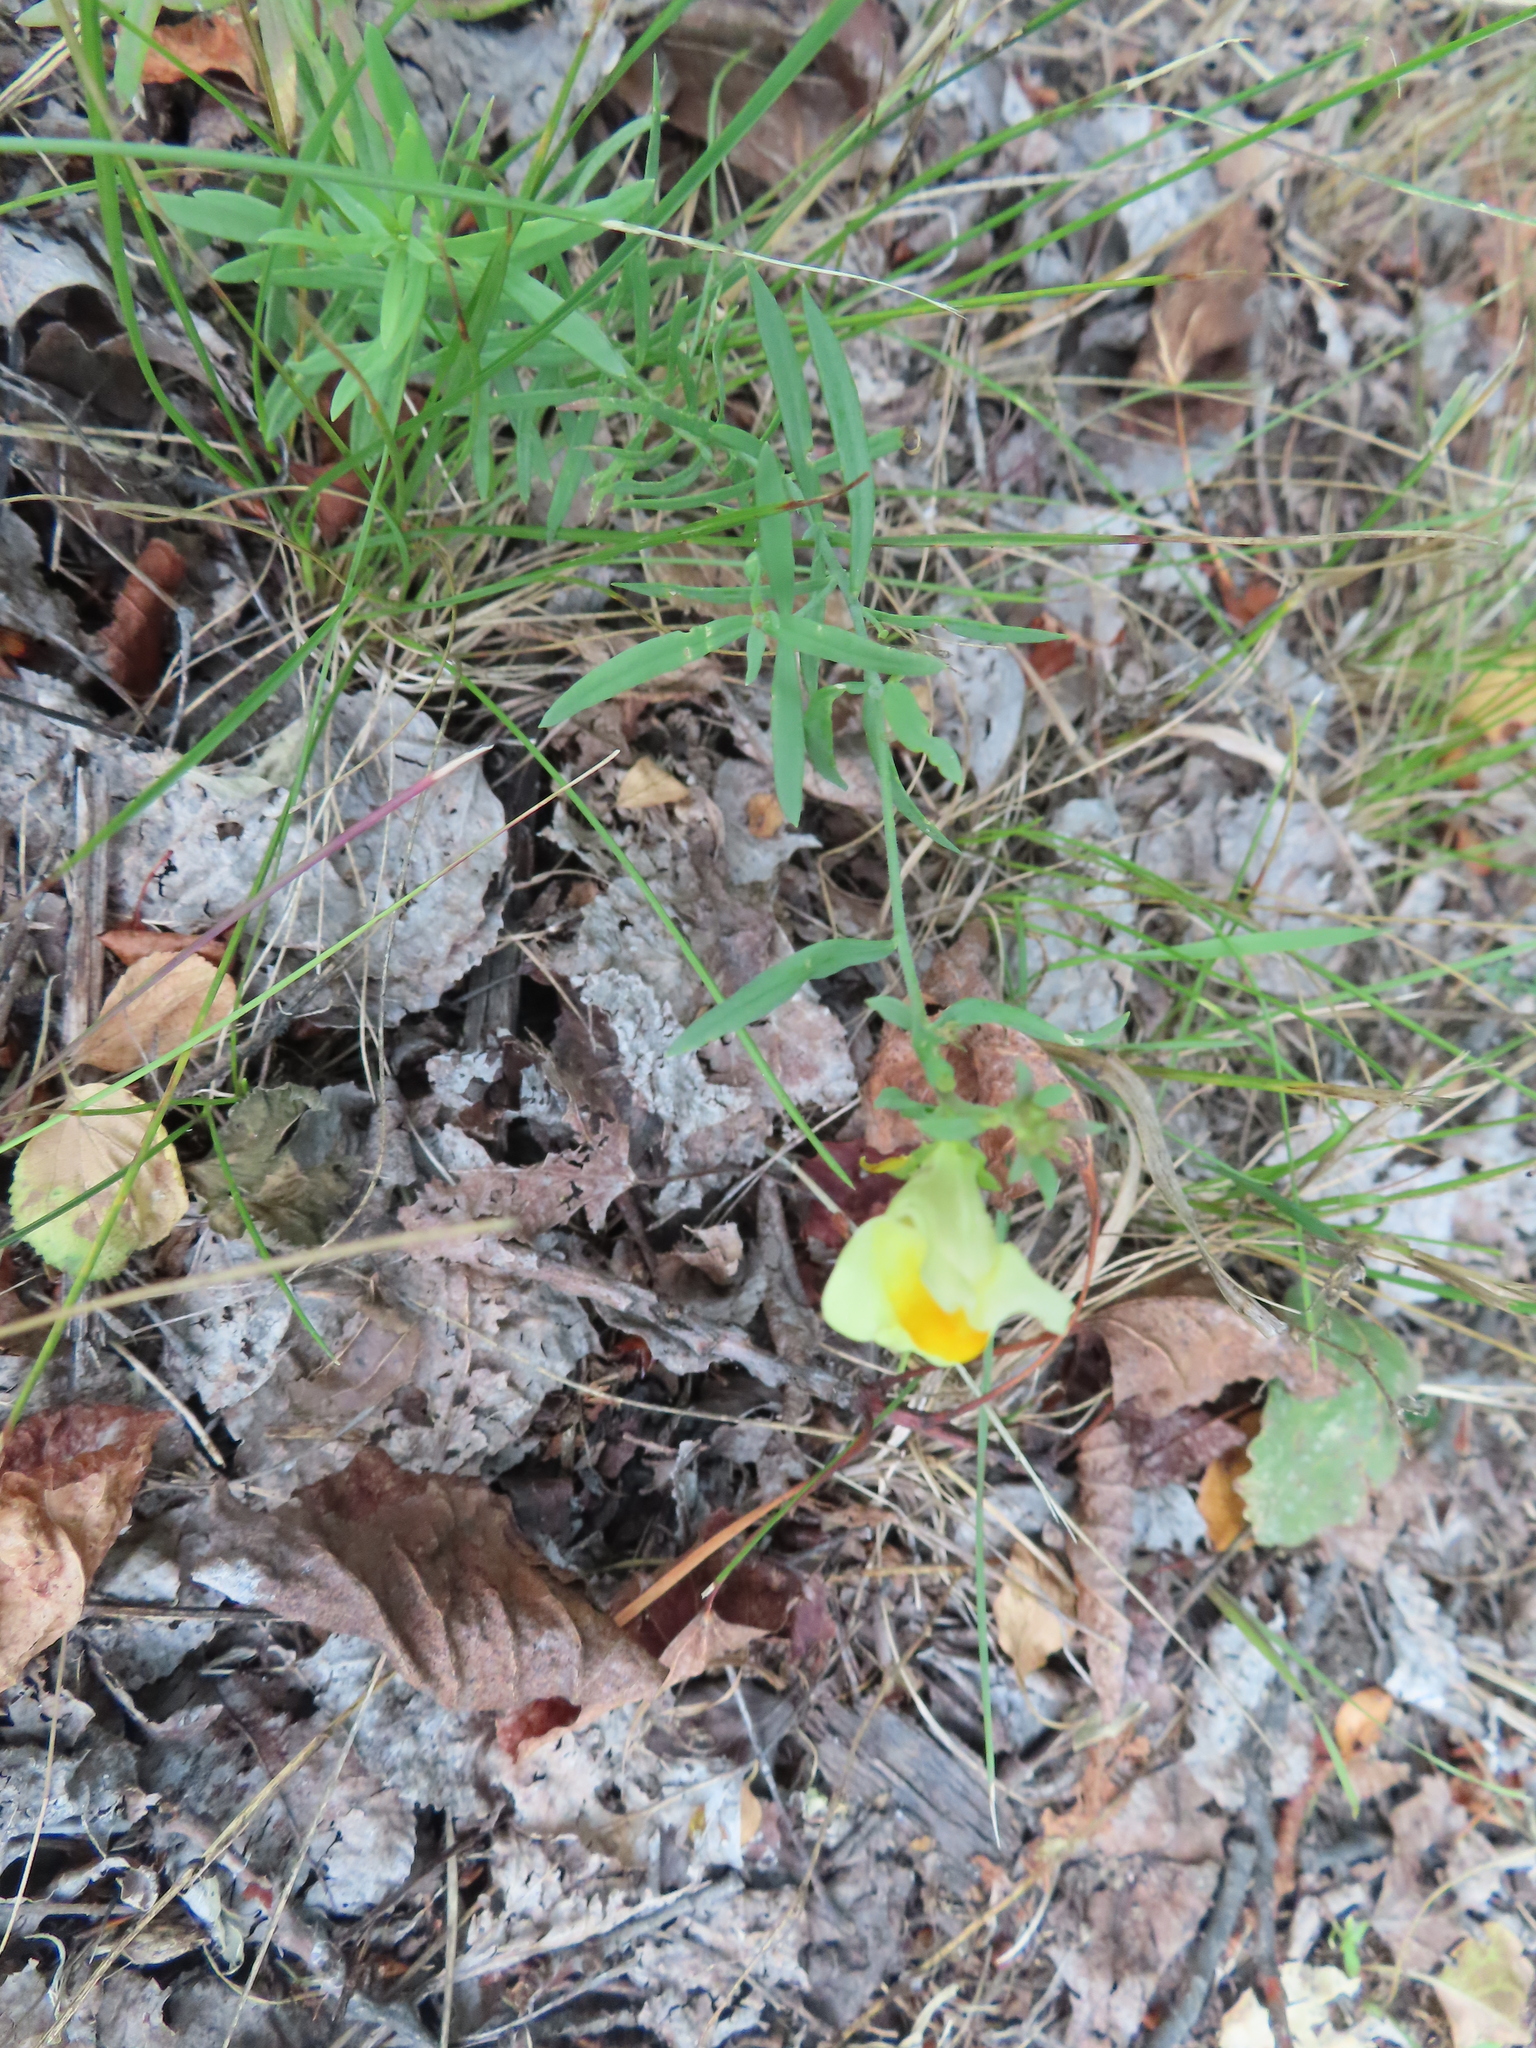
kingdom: Plantae
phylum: Tracheophyta
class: Magnoliopsida
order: Lamiales
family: Plantaginaceae
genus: Linaria
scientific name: Linaria vulgaris
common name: Butter and eggs
